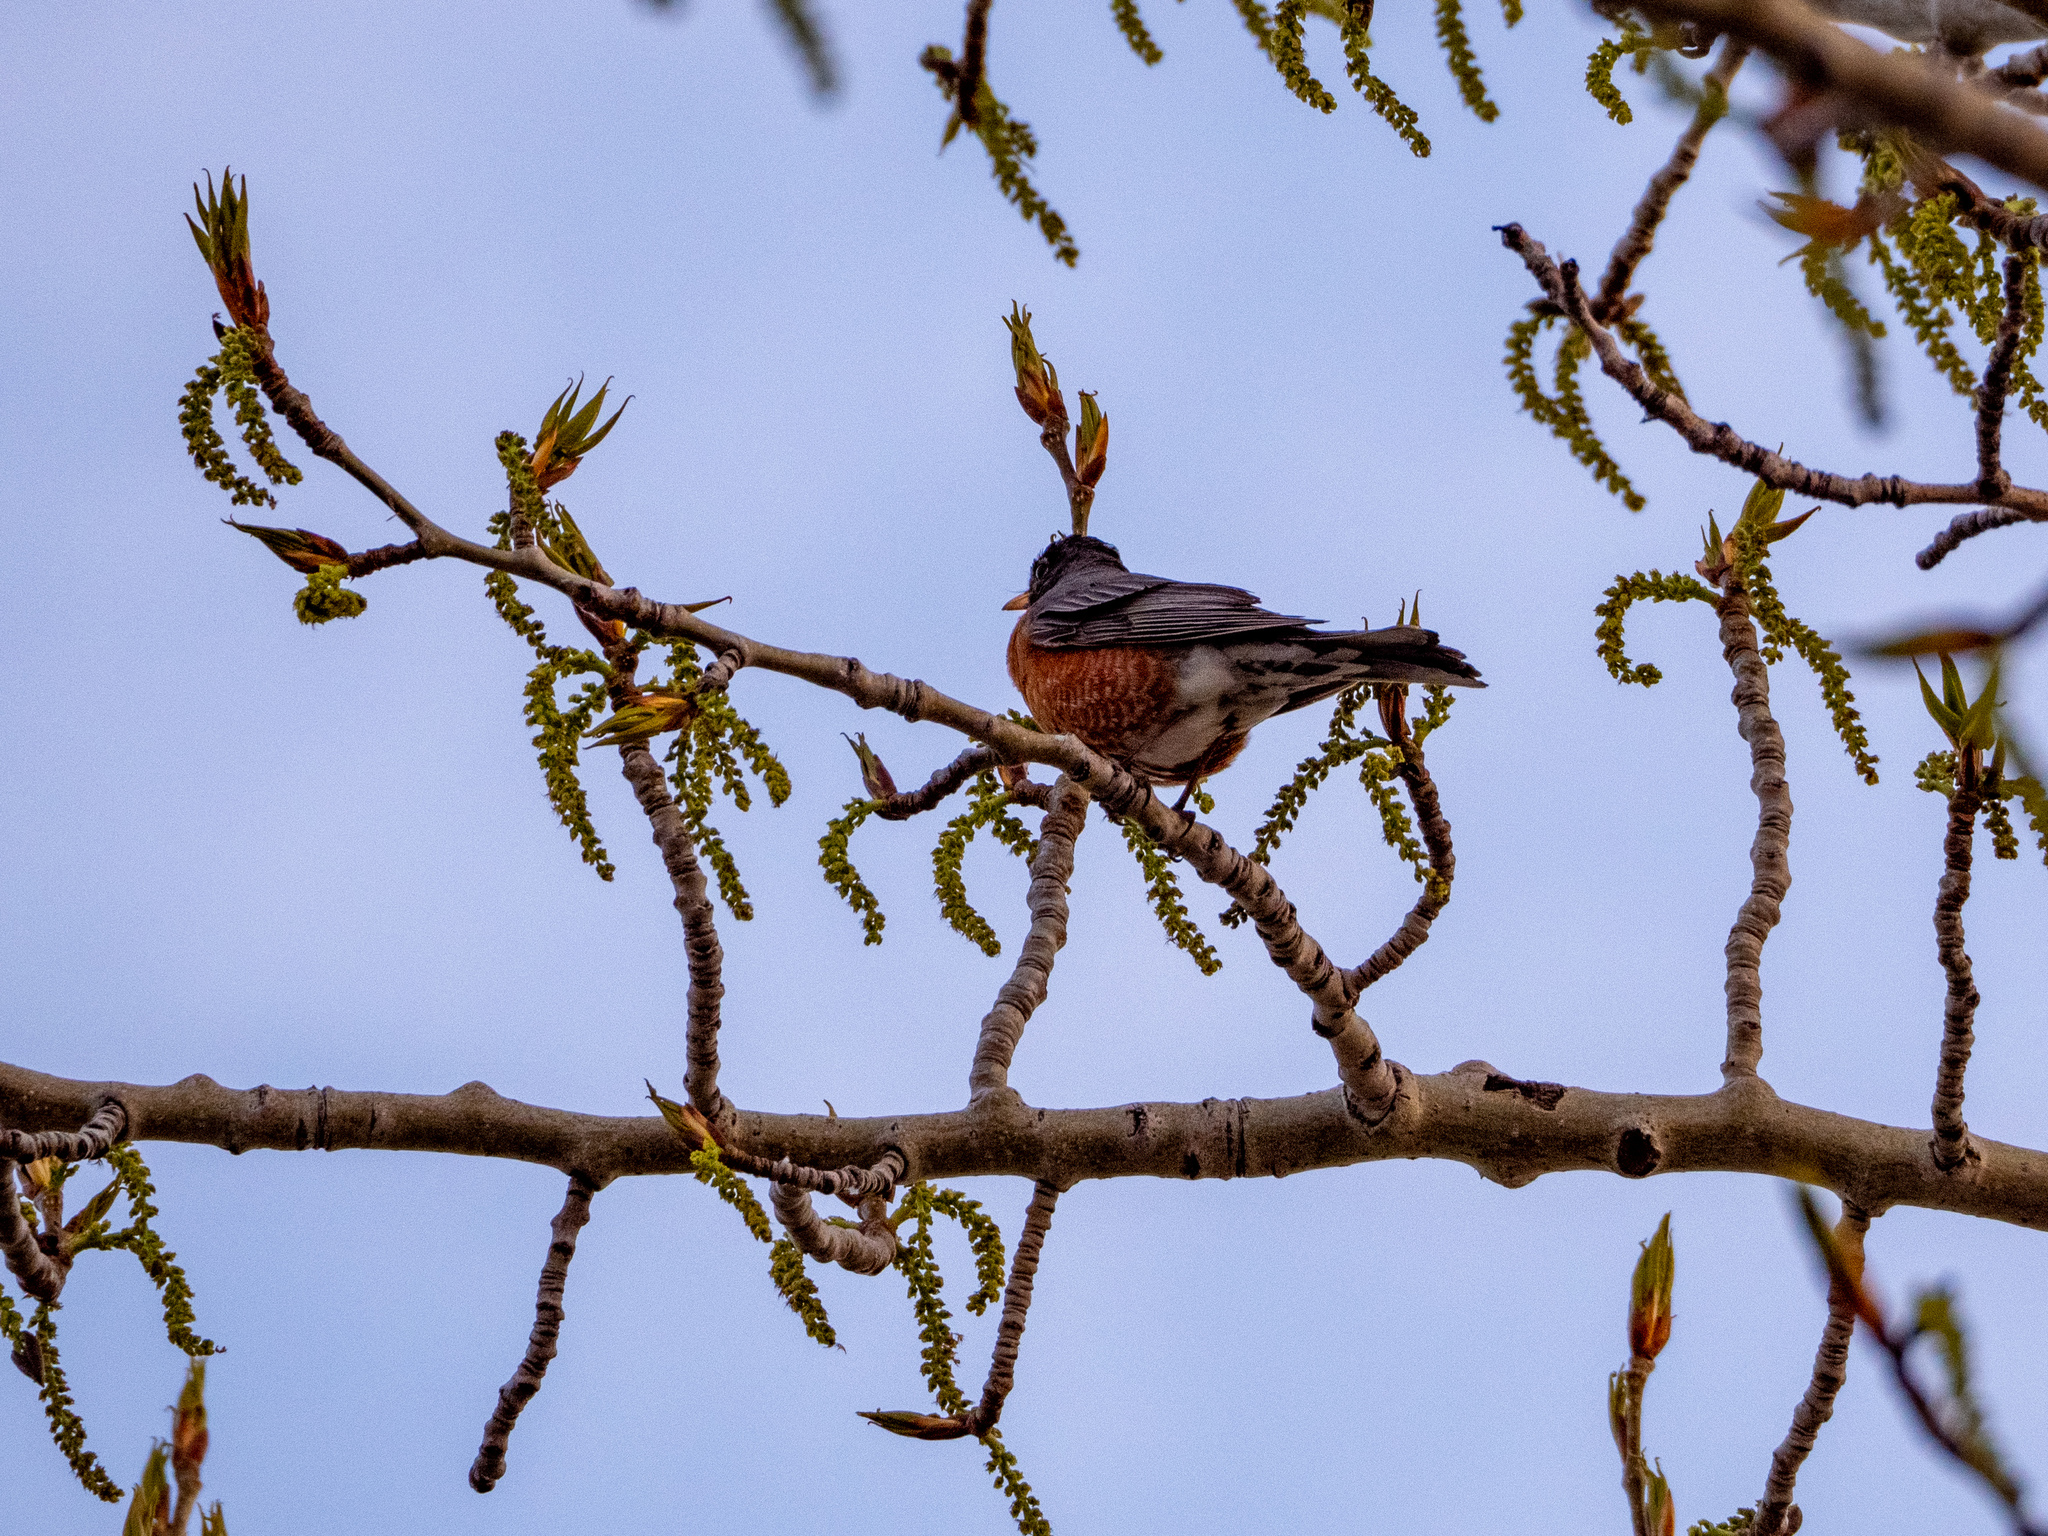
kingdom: Animalia
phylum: Chordata
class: Aves
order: Passeriformes
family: Turdidae
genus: Turdus
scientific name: Turdus migratorius
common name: American robin
